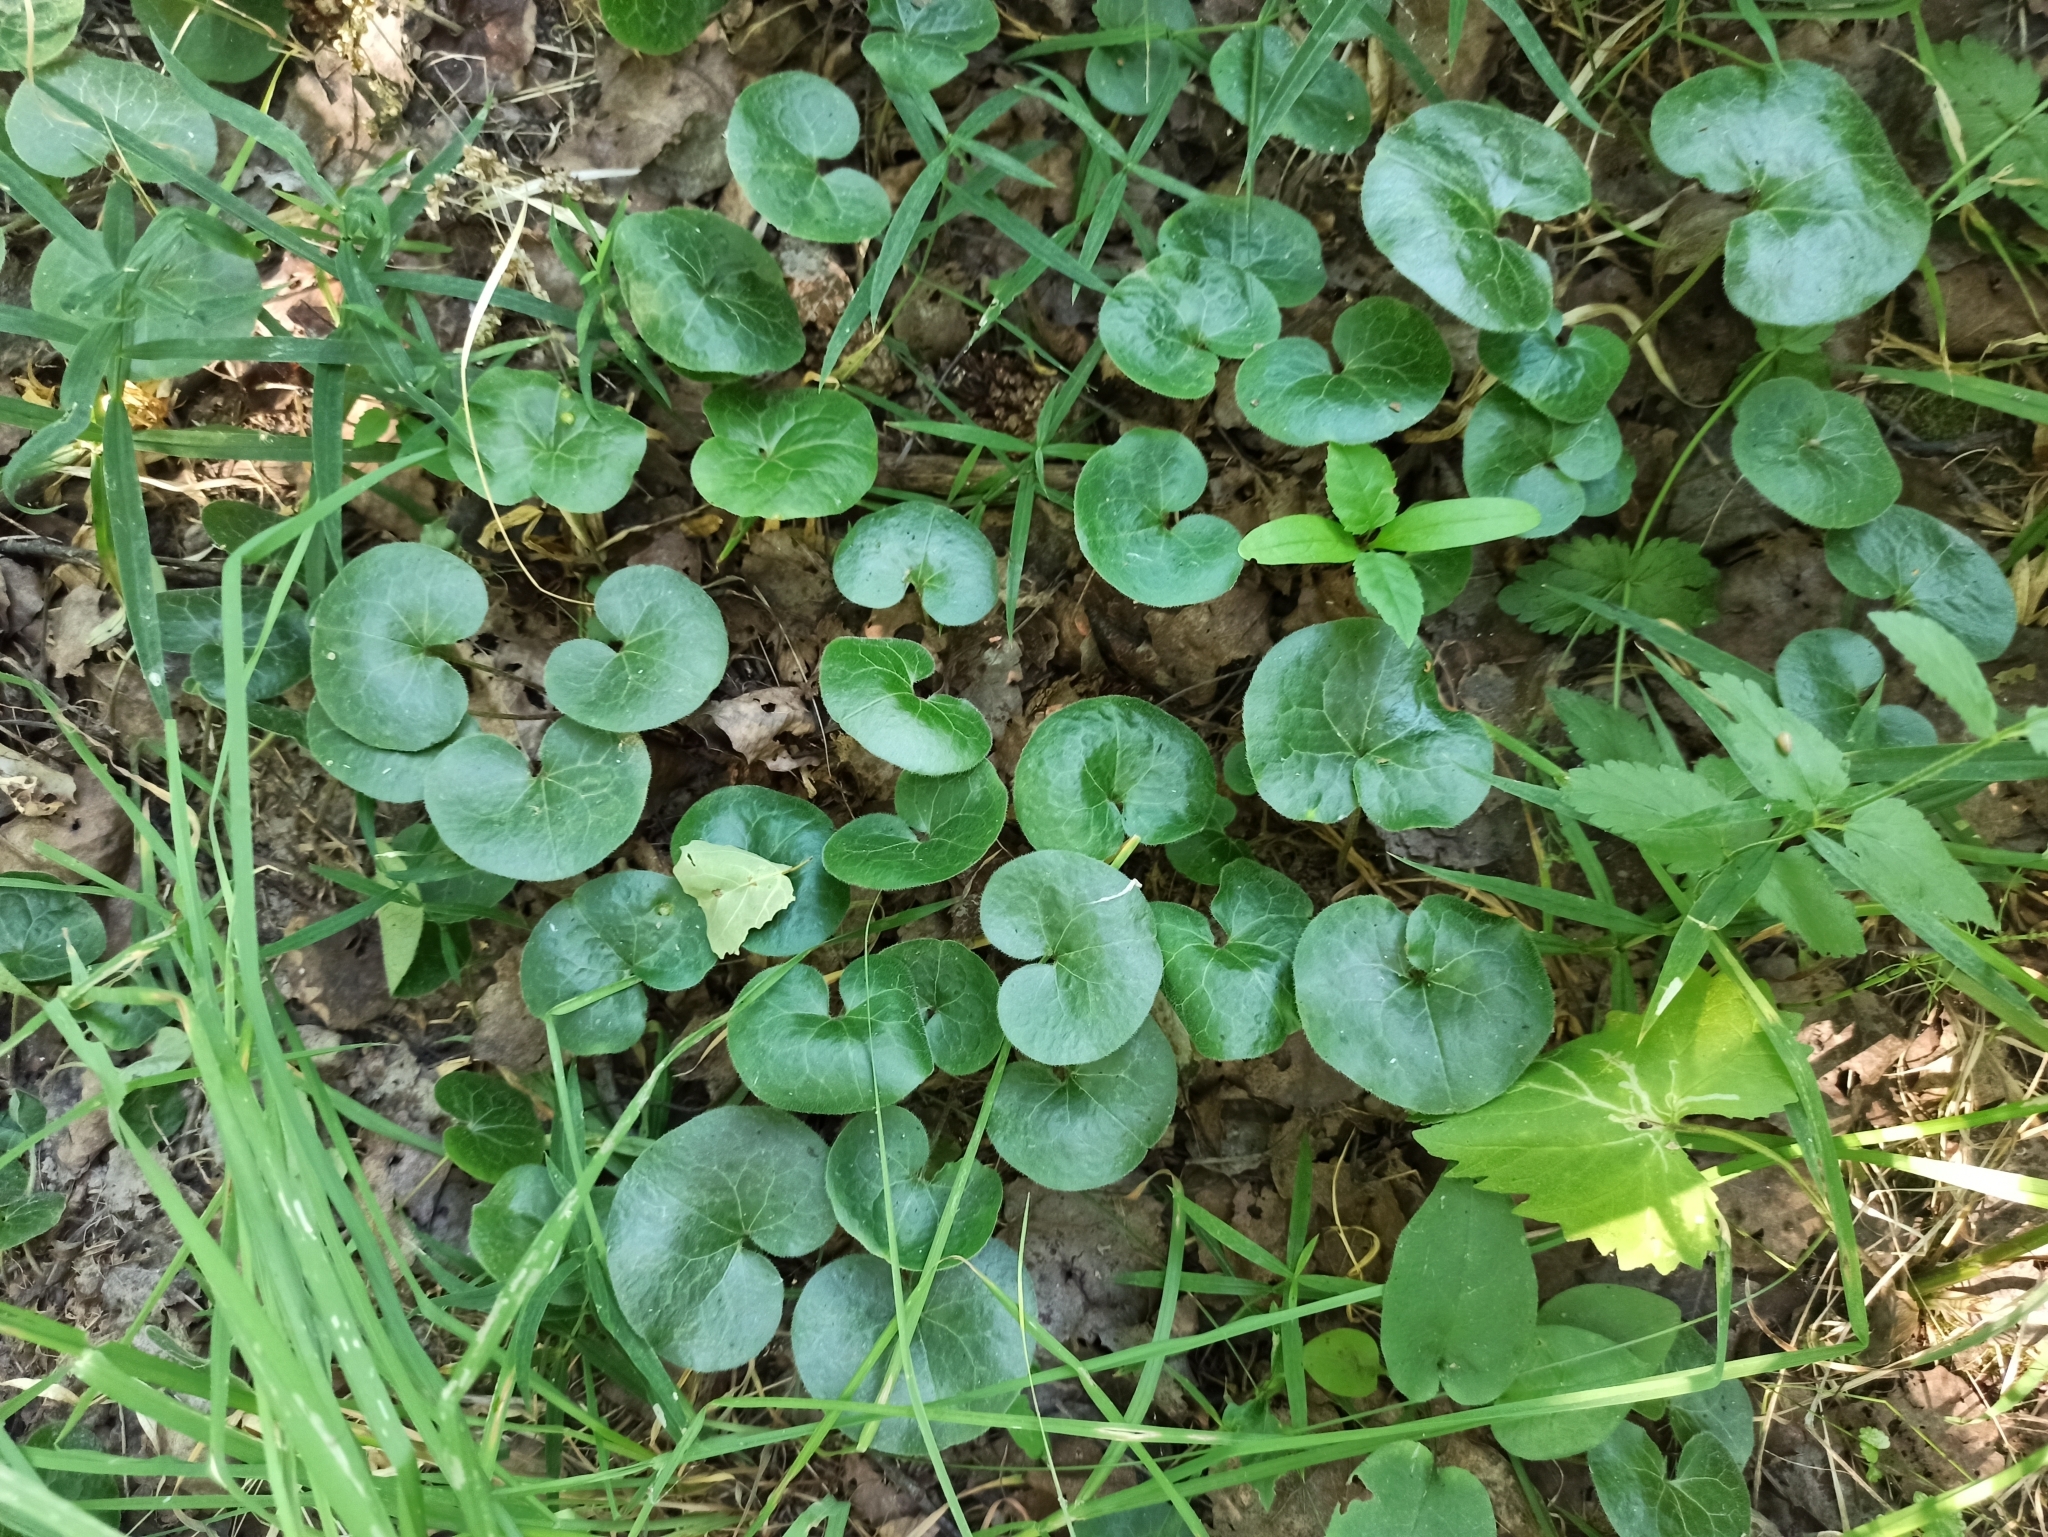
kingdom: Plantae
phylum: Tracheophyta
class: Magnoliopsida
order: Piperales
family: Aristolochiaceae
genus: Asarum
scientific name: Asarum europaeum
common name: Asarabacca
